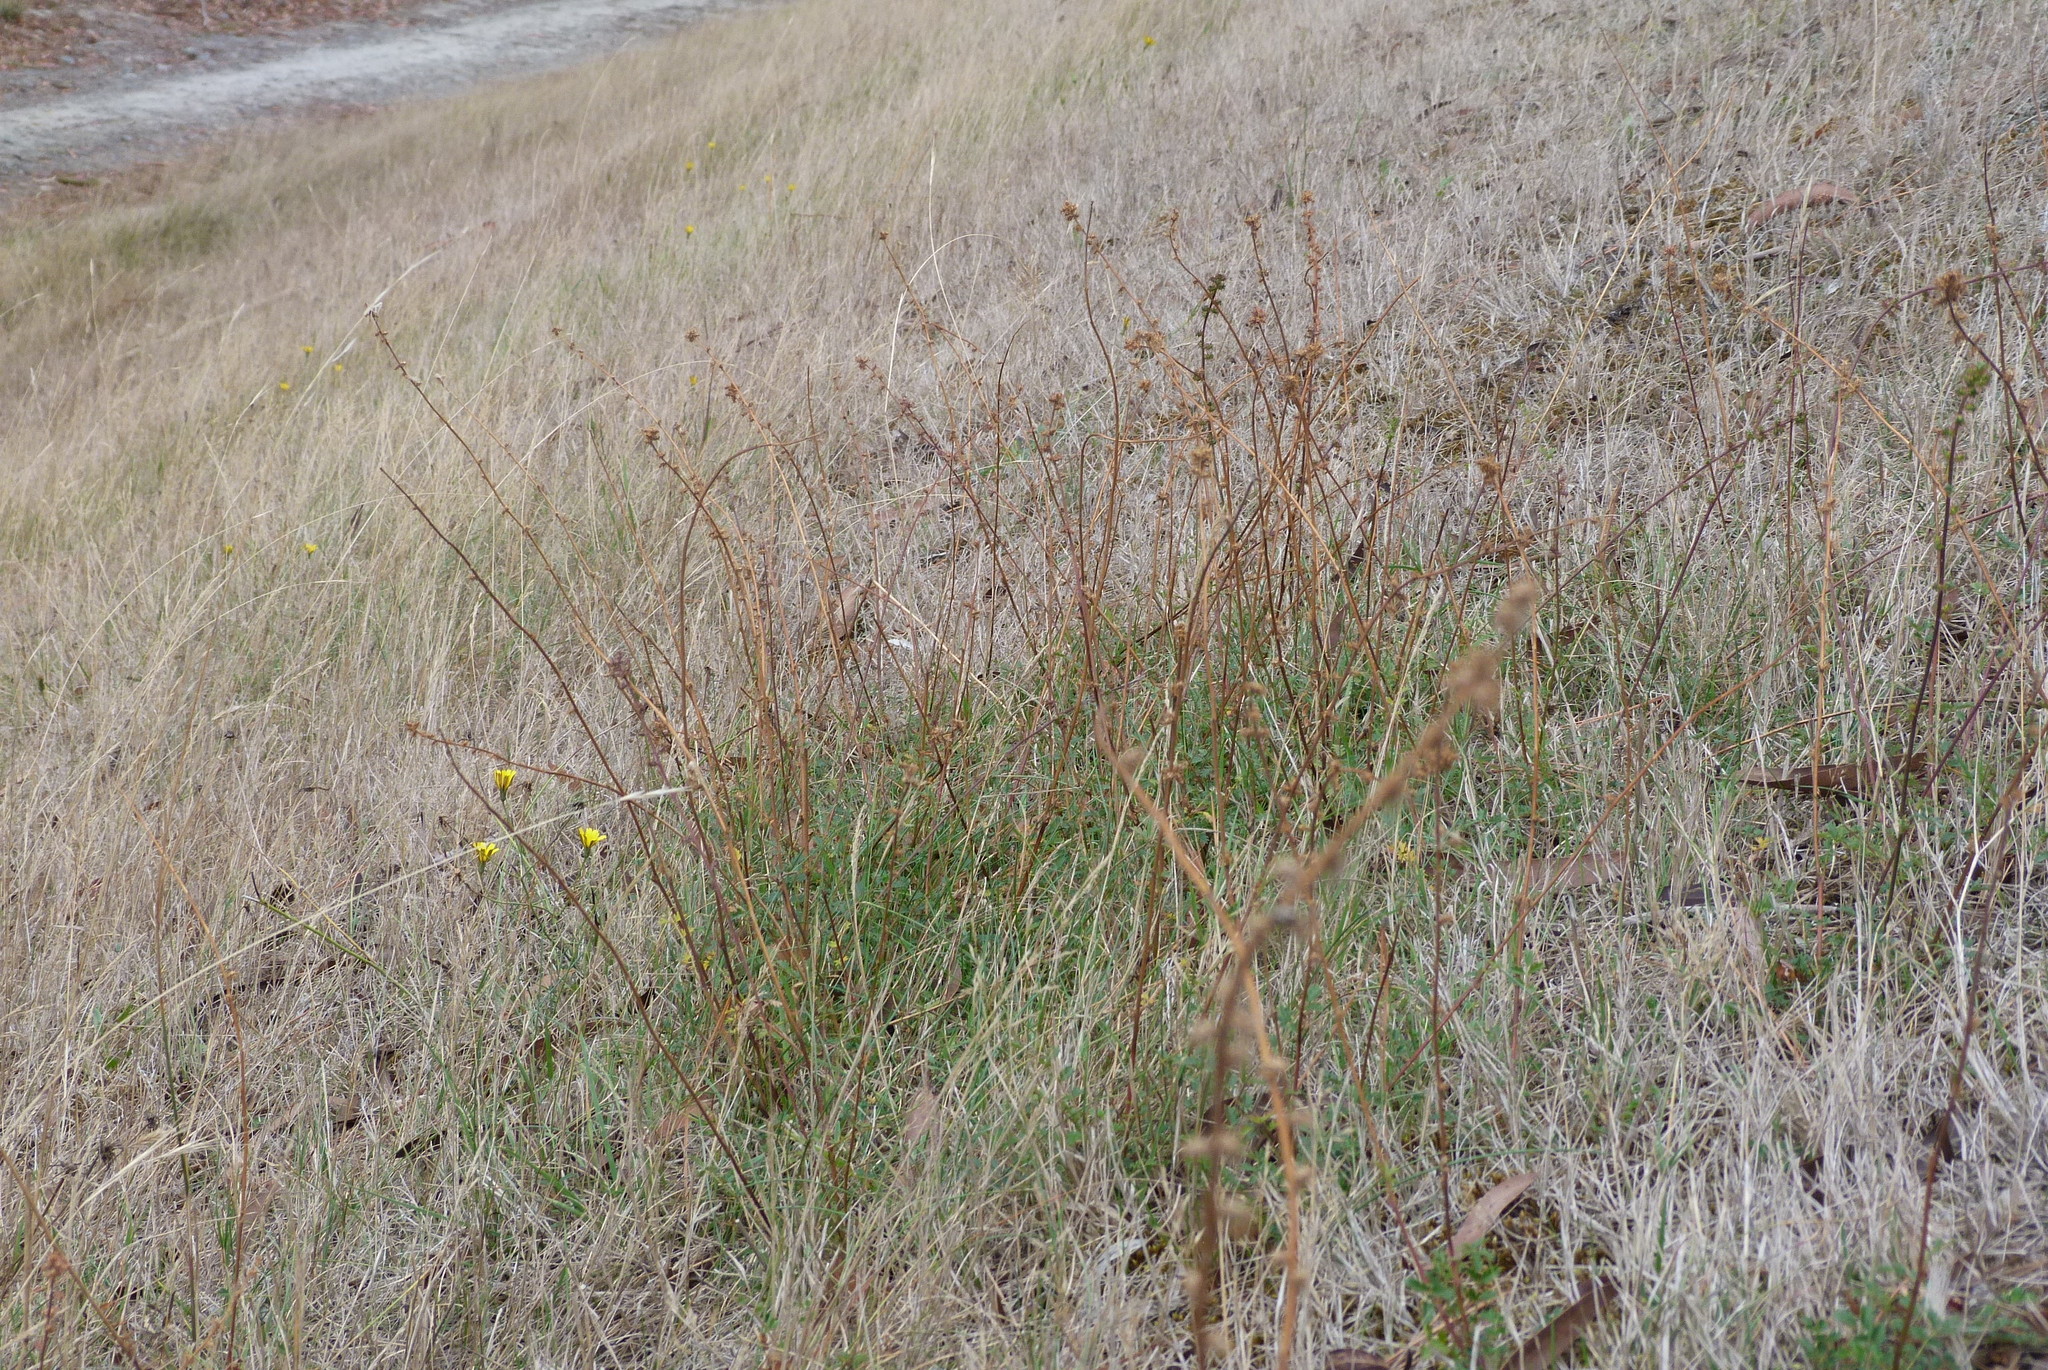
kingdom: Plantae
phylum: Tracheophyta
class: Magnoliopsida
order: Rosales
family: Rosaceae
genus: Acaena
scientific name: Acaena agnipila
